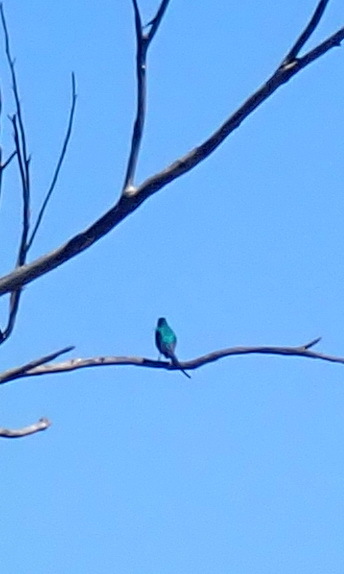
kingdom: Animalia
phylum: Chordata
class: Aves
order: Passeriformes
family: Nectariniidae
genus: Nectarinia
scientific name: Nectarinia famosa
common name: Malachite sunbird
